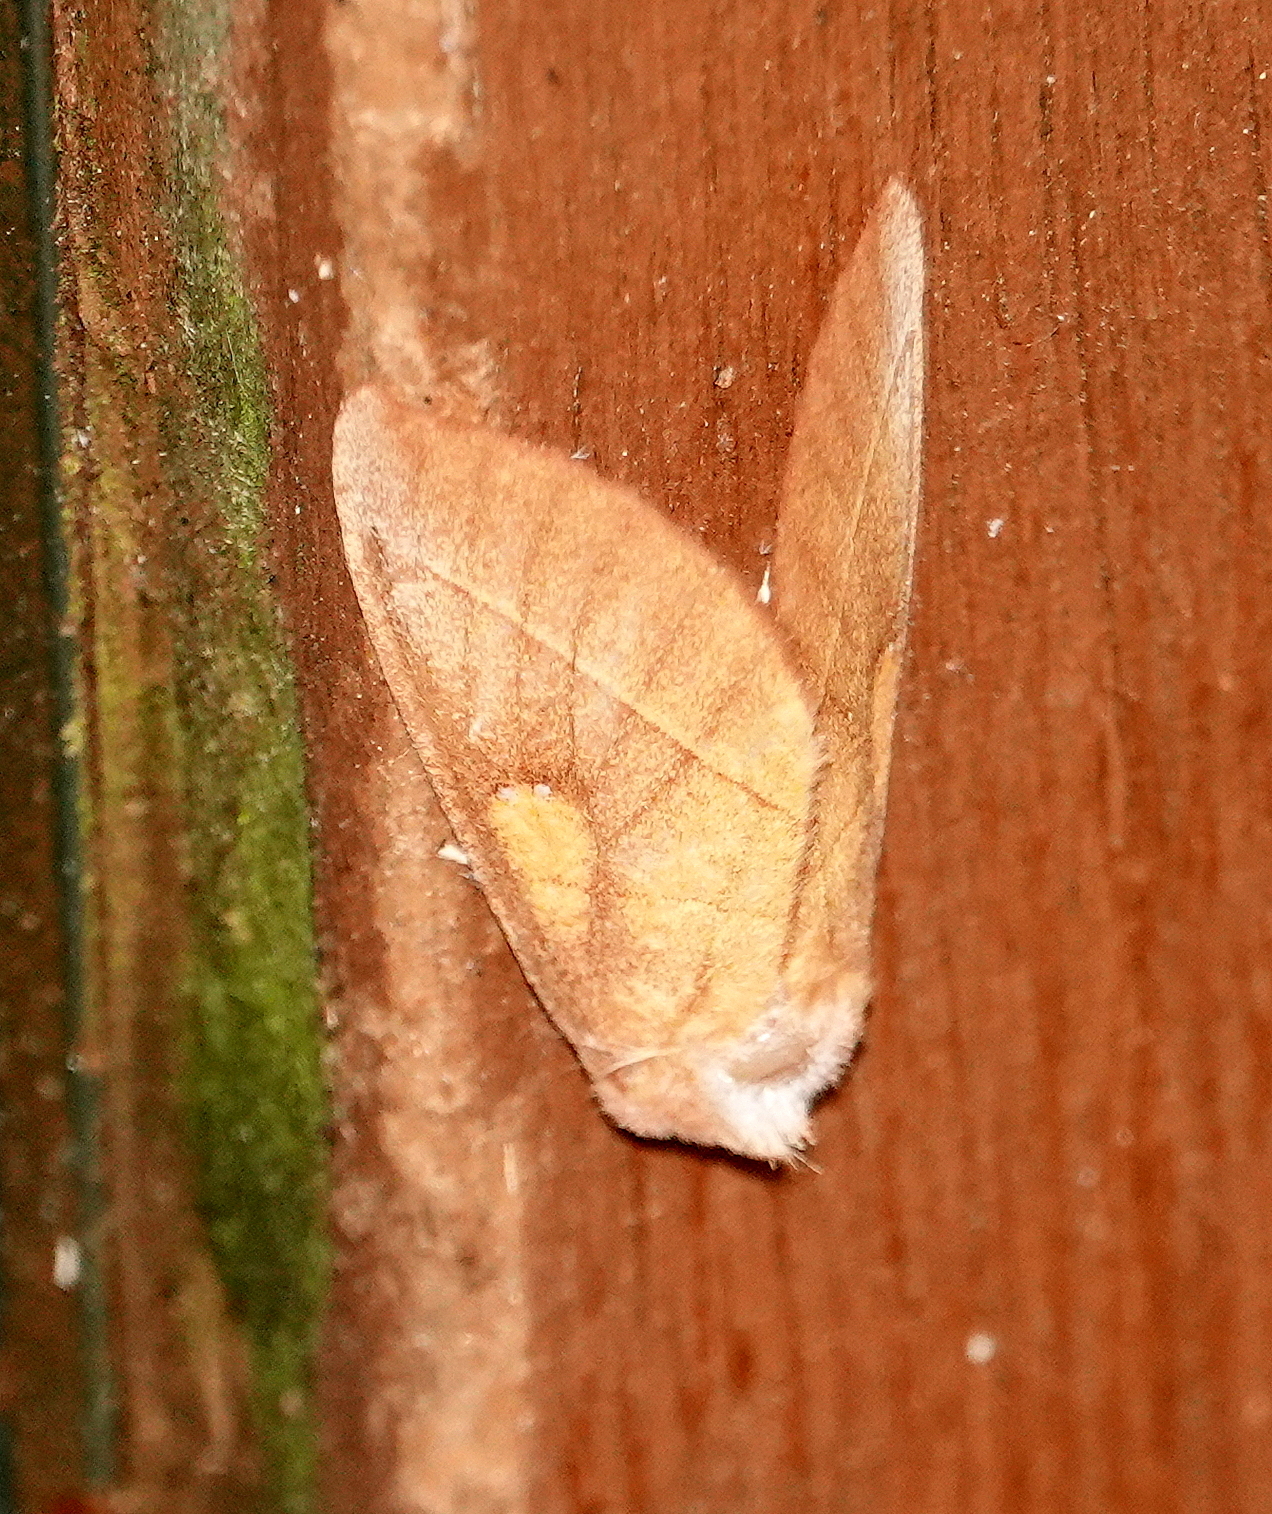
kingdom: Animalia
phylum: Arthropoda
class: Insecta
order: Lepidoptera
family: Notodontidae
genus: Nadata
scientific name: Nadata gibbosa
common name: White-dotted prominent
